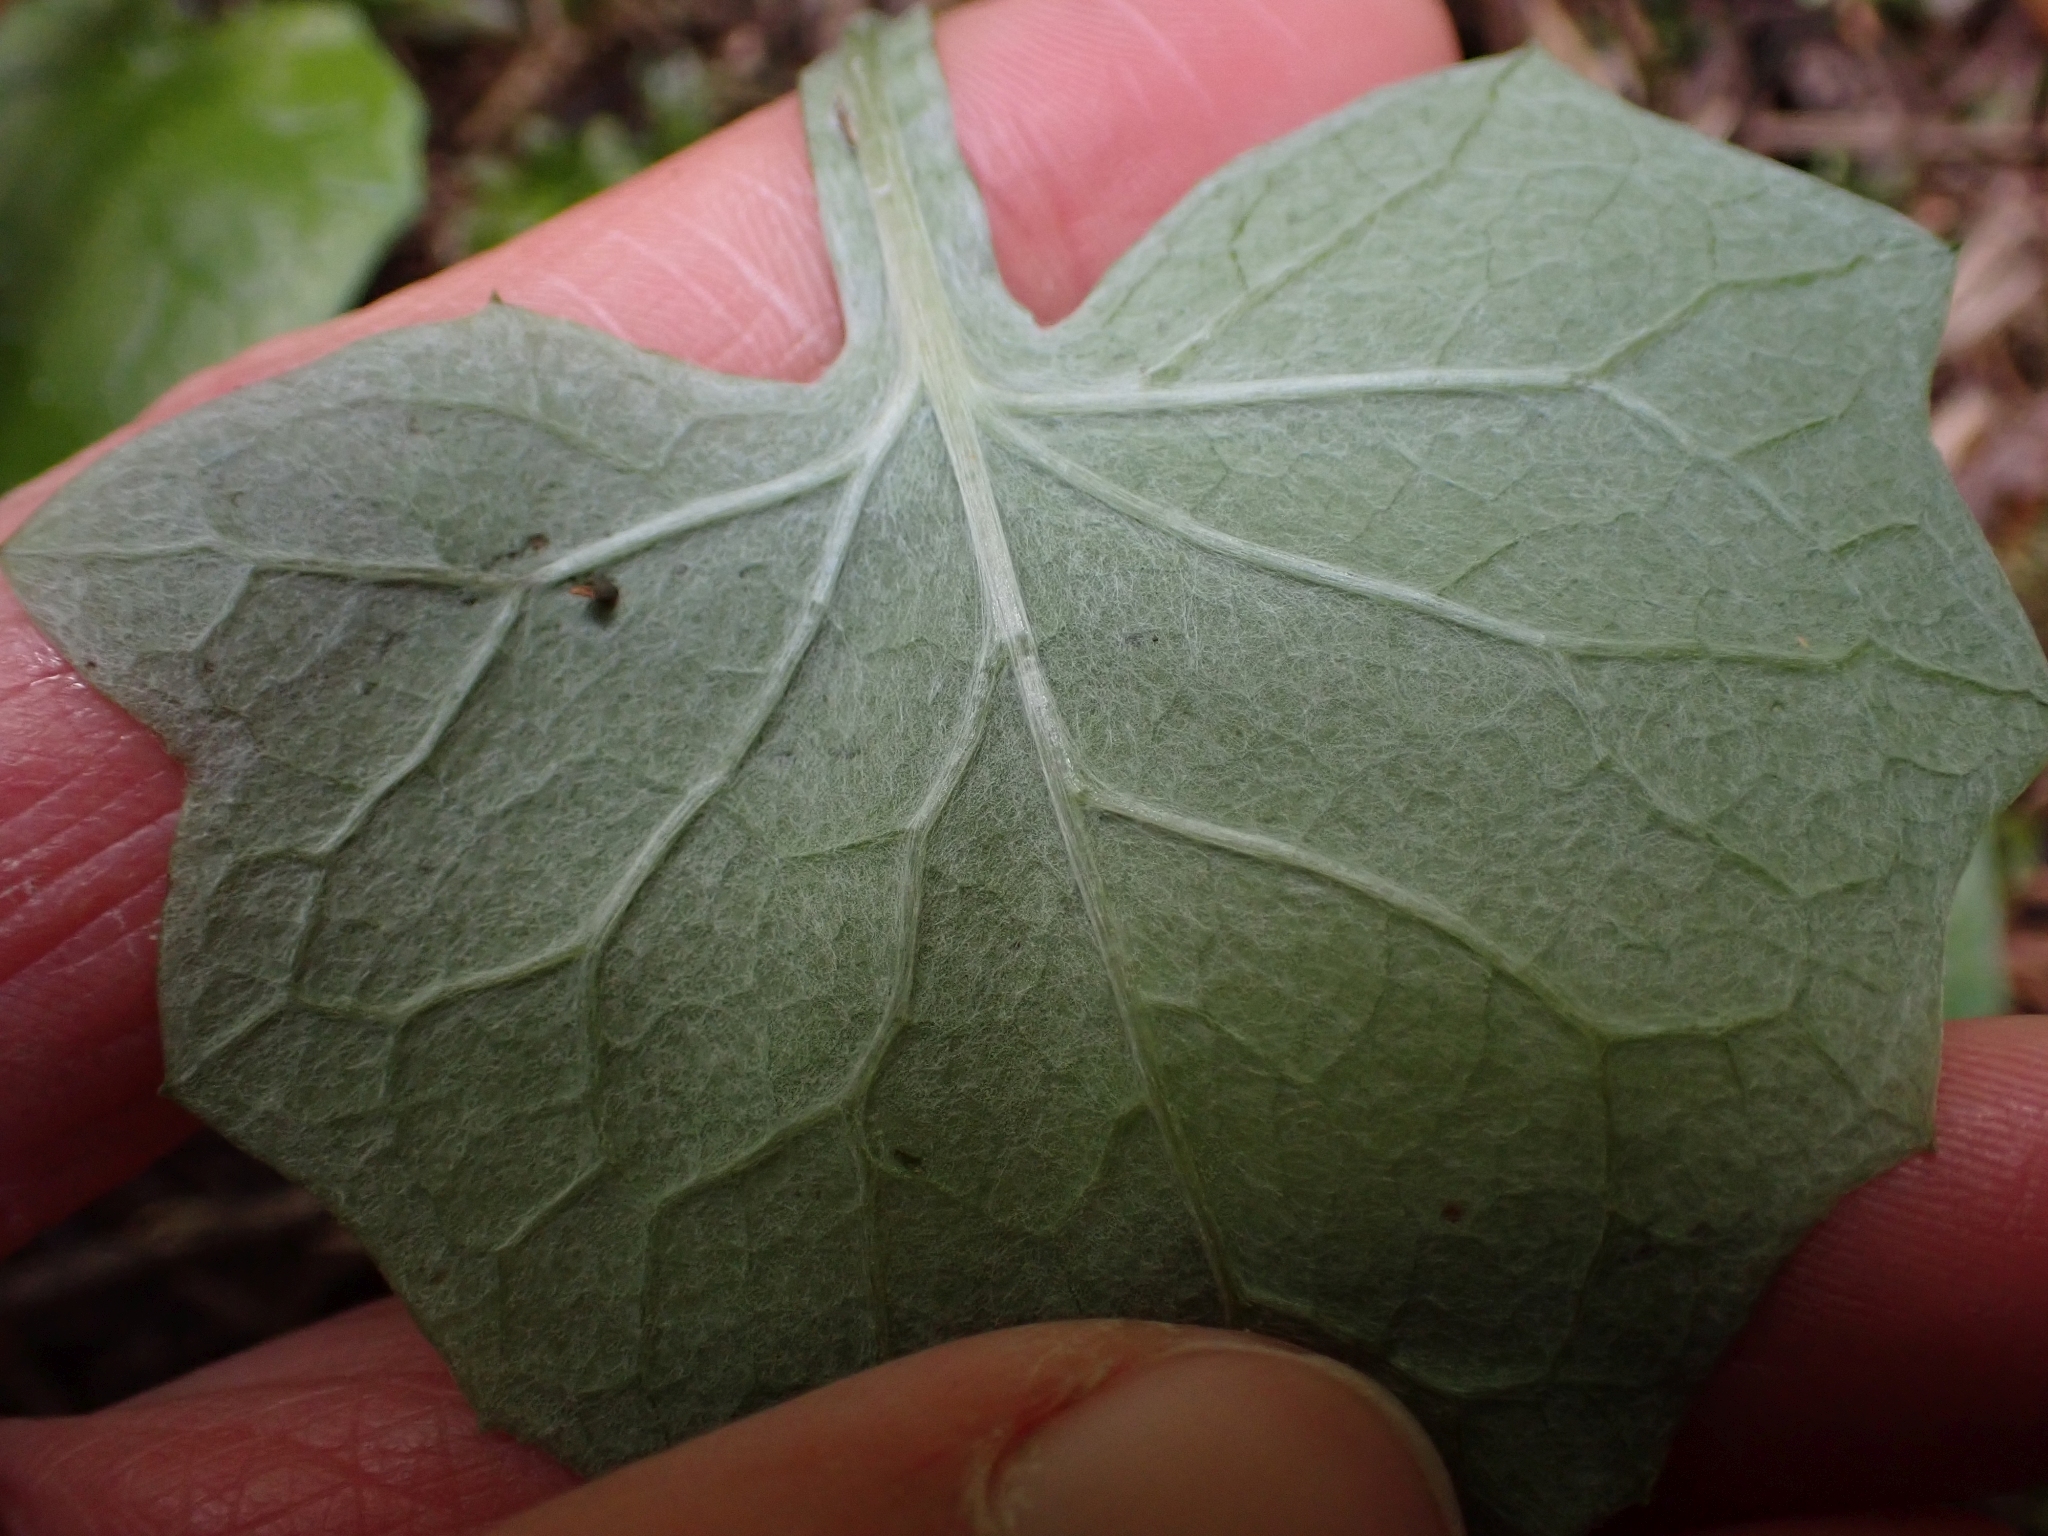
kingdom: Plantae
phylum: Tracheophyta
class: Magnoliopsida
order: Asterales
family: Asteraceae
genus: Adenocaulon
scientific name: Adenocaulon bicolor
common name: Trailplant
